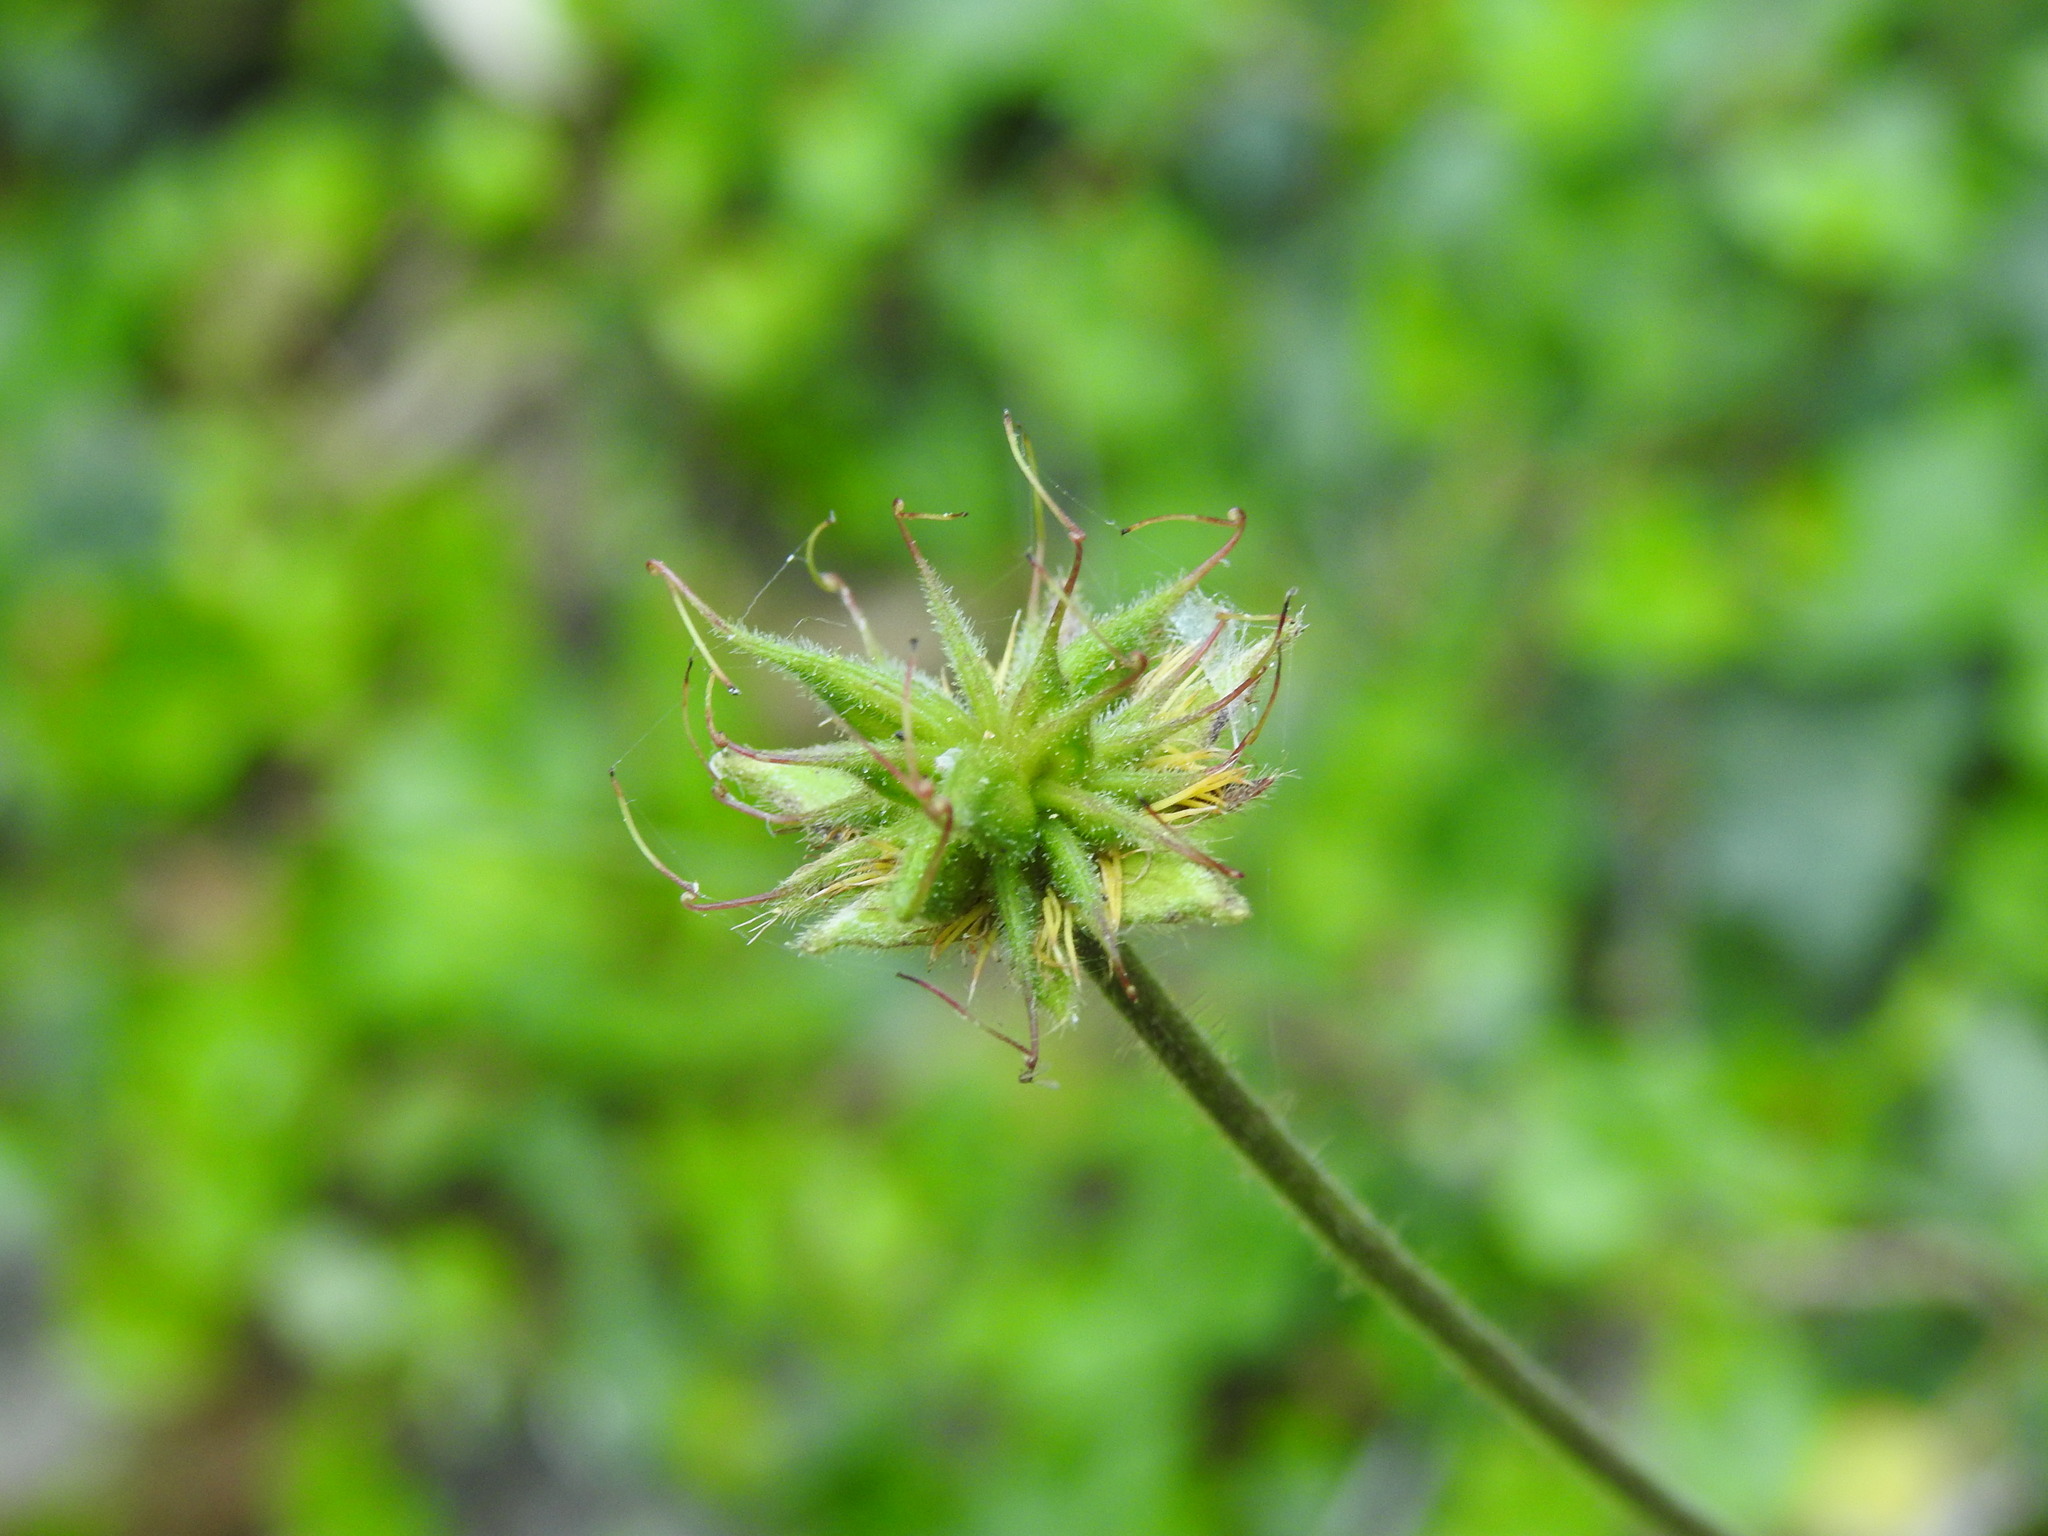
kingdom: Plantae
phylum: Tracheophyta
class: Magnoliopsida
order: Rosales
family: Rosaceae
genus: Geum
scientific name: Geum sylvaticum
